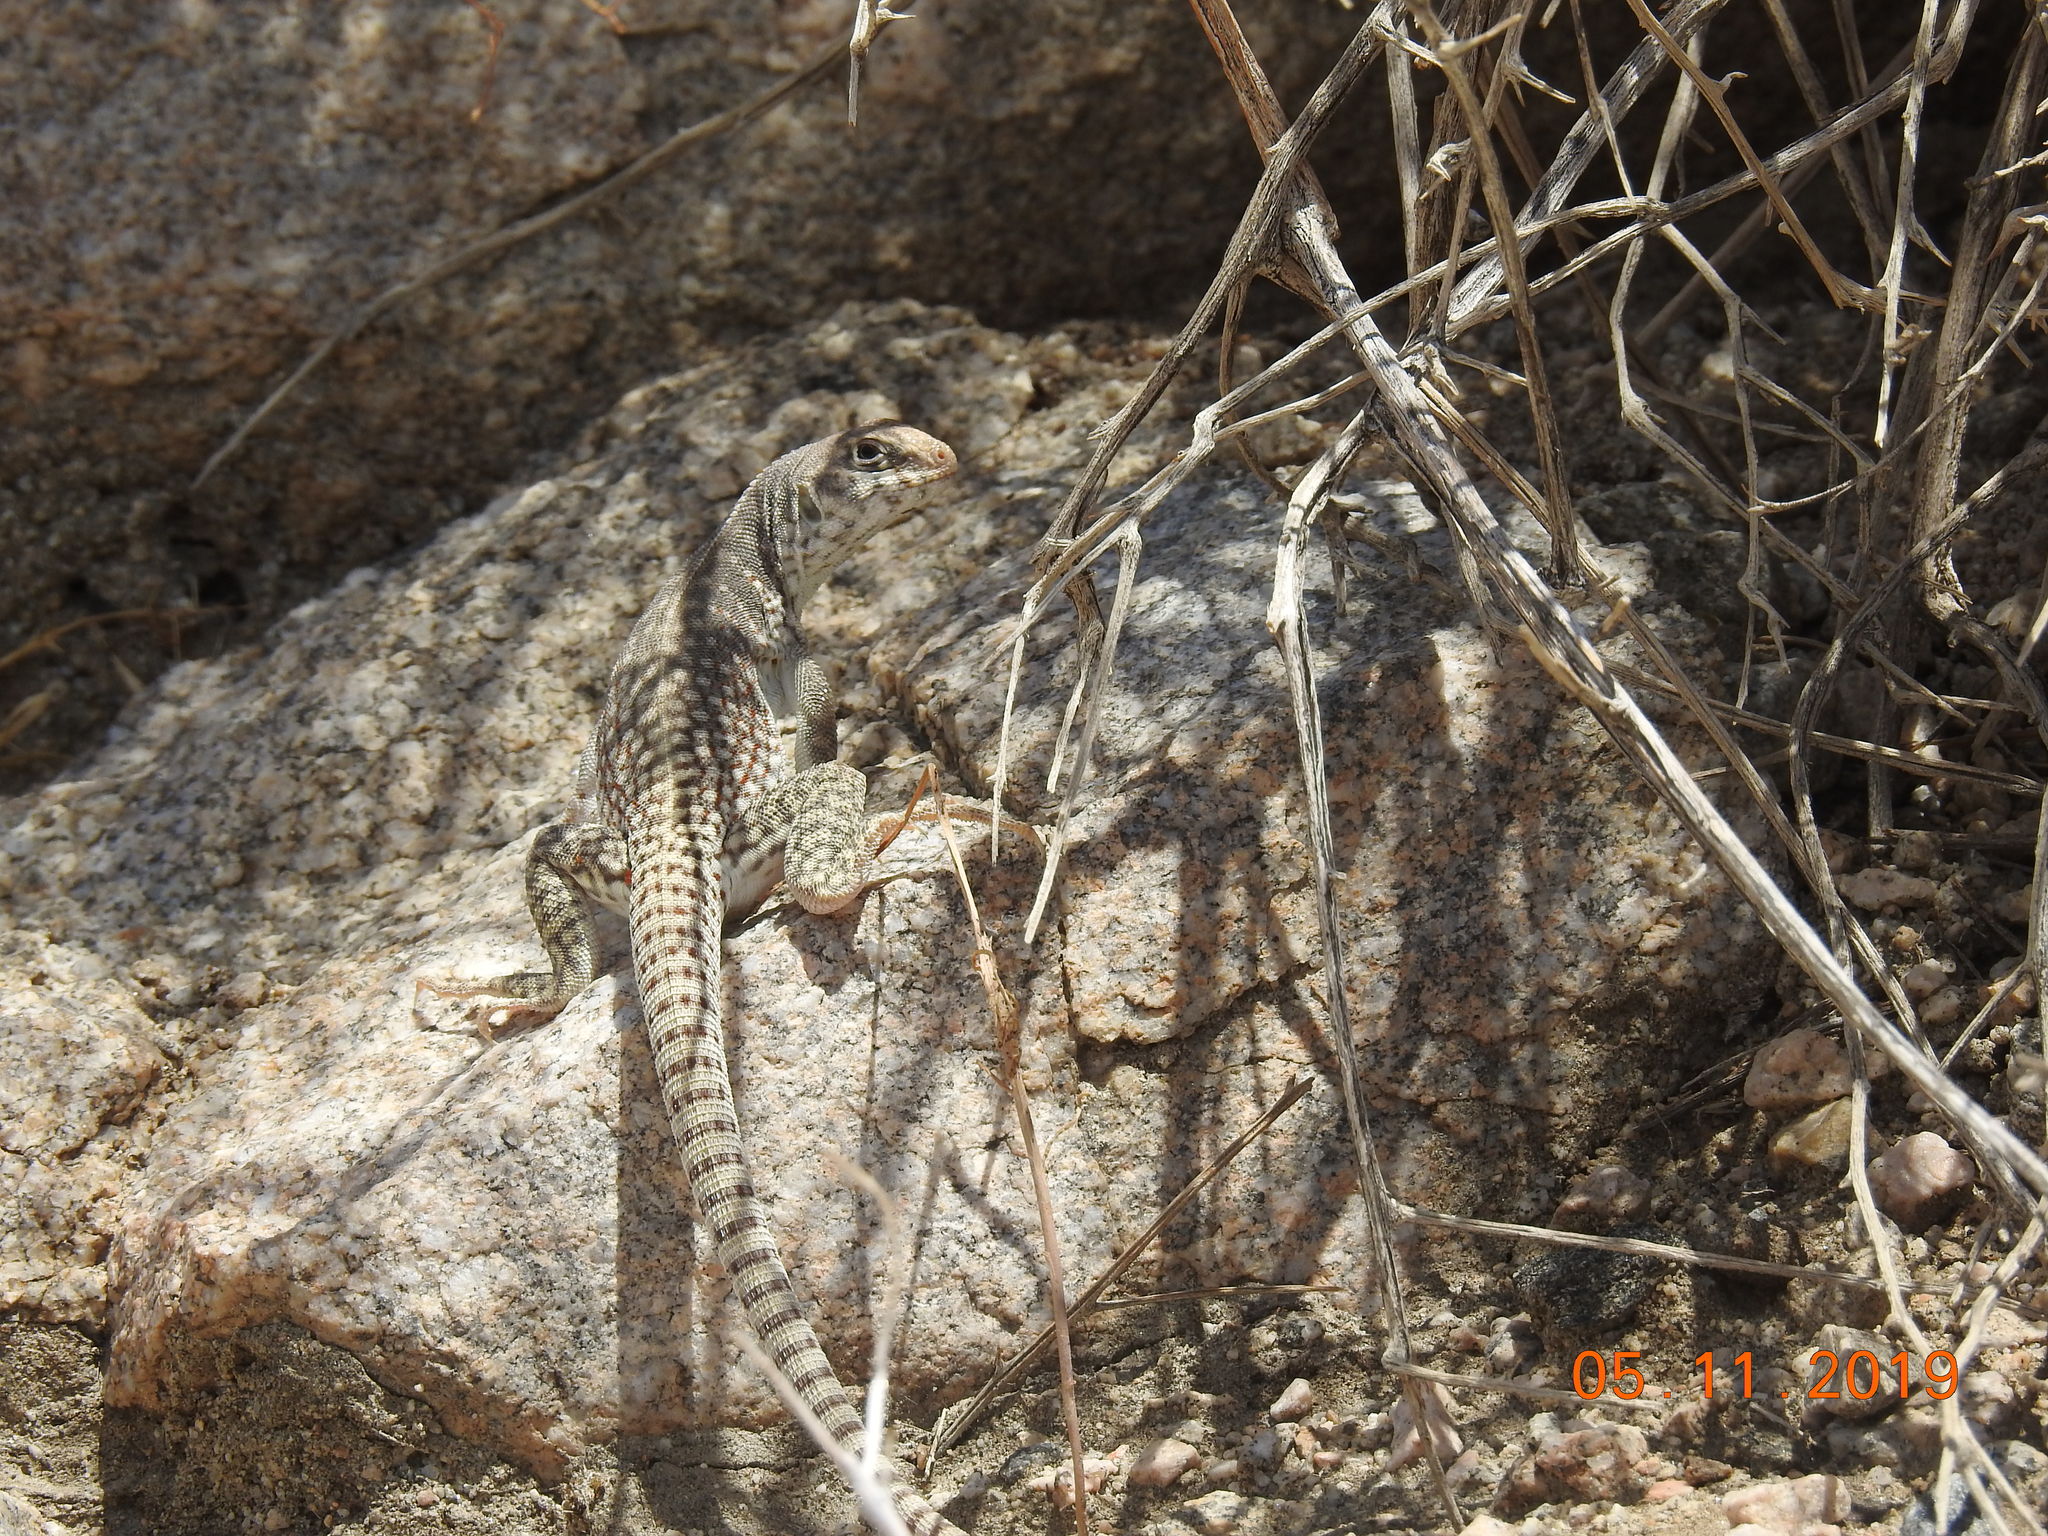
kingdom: Animalia
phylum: Chordata
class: Squamata
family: Iguanidae
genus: Dipsosaurus
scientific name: Dipsosaurus dorsalis
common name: Desert iguana
